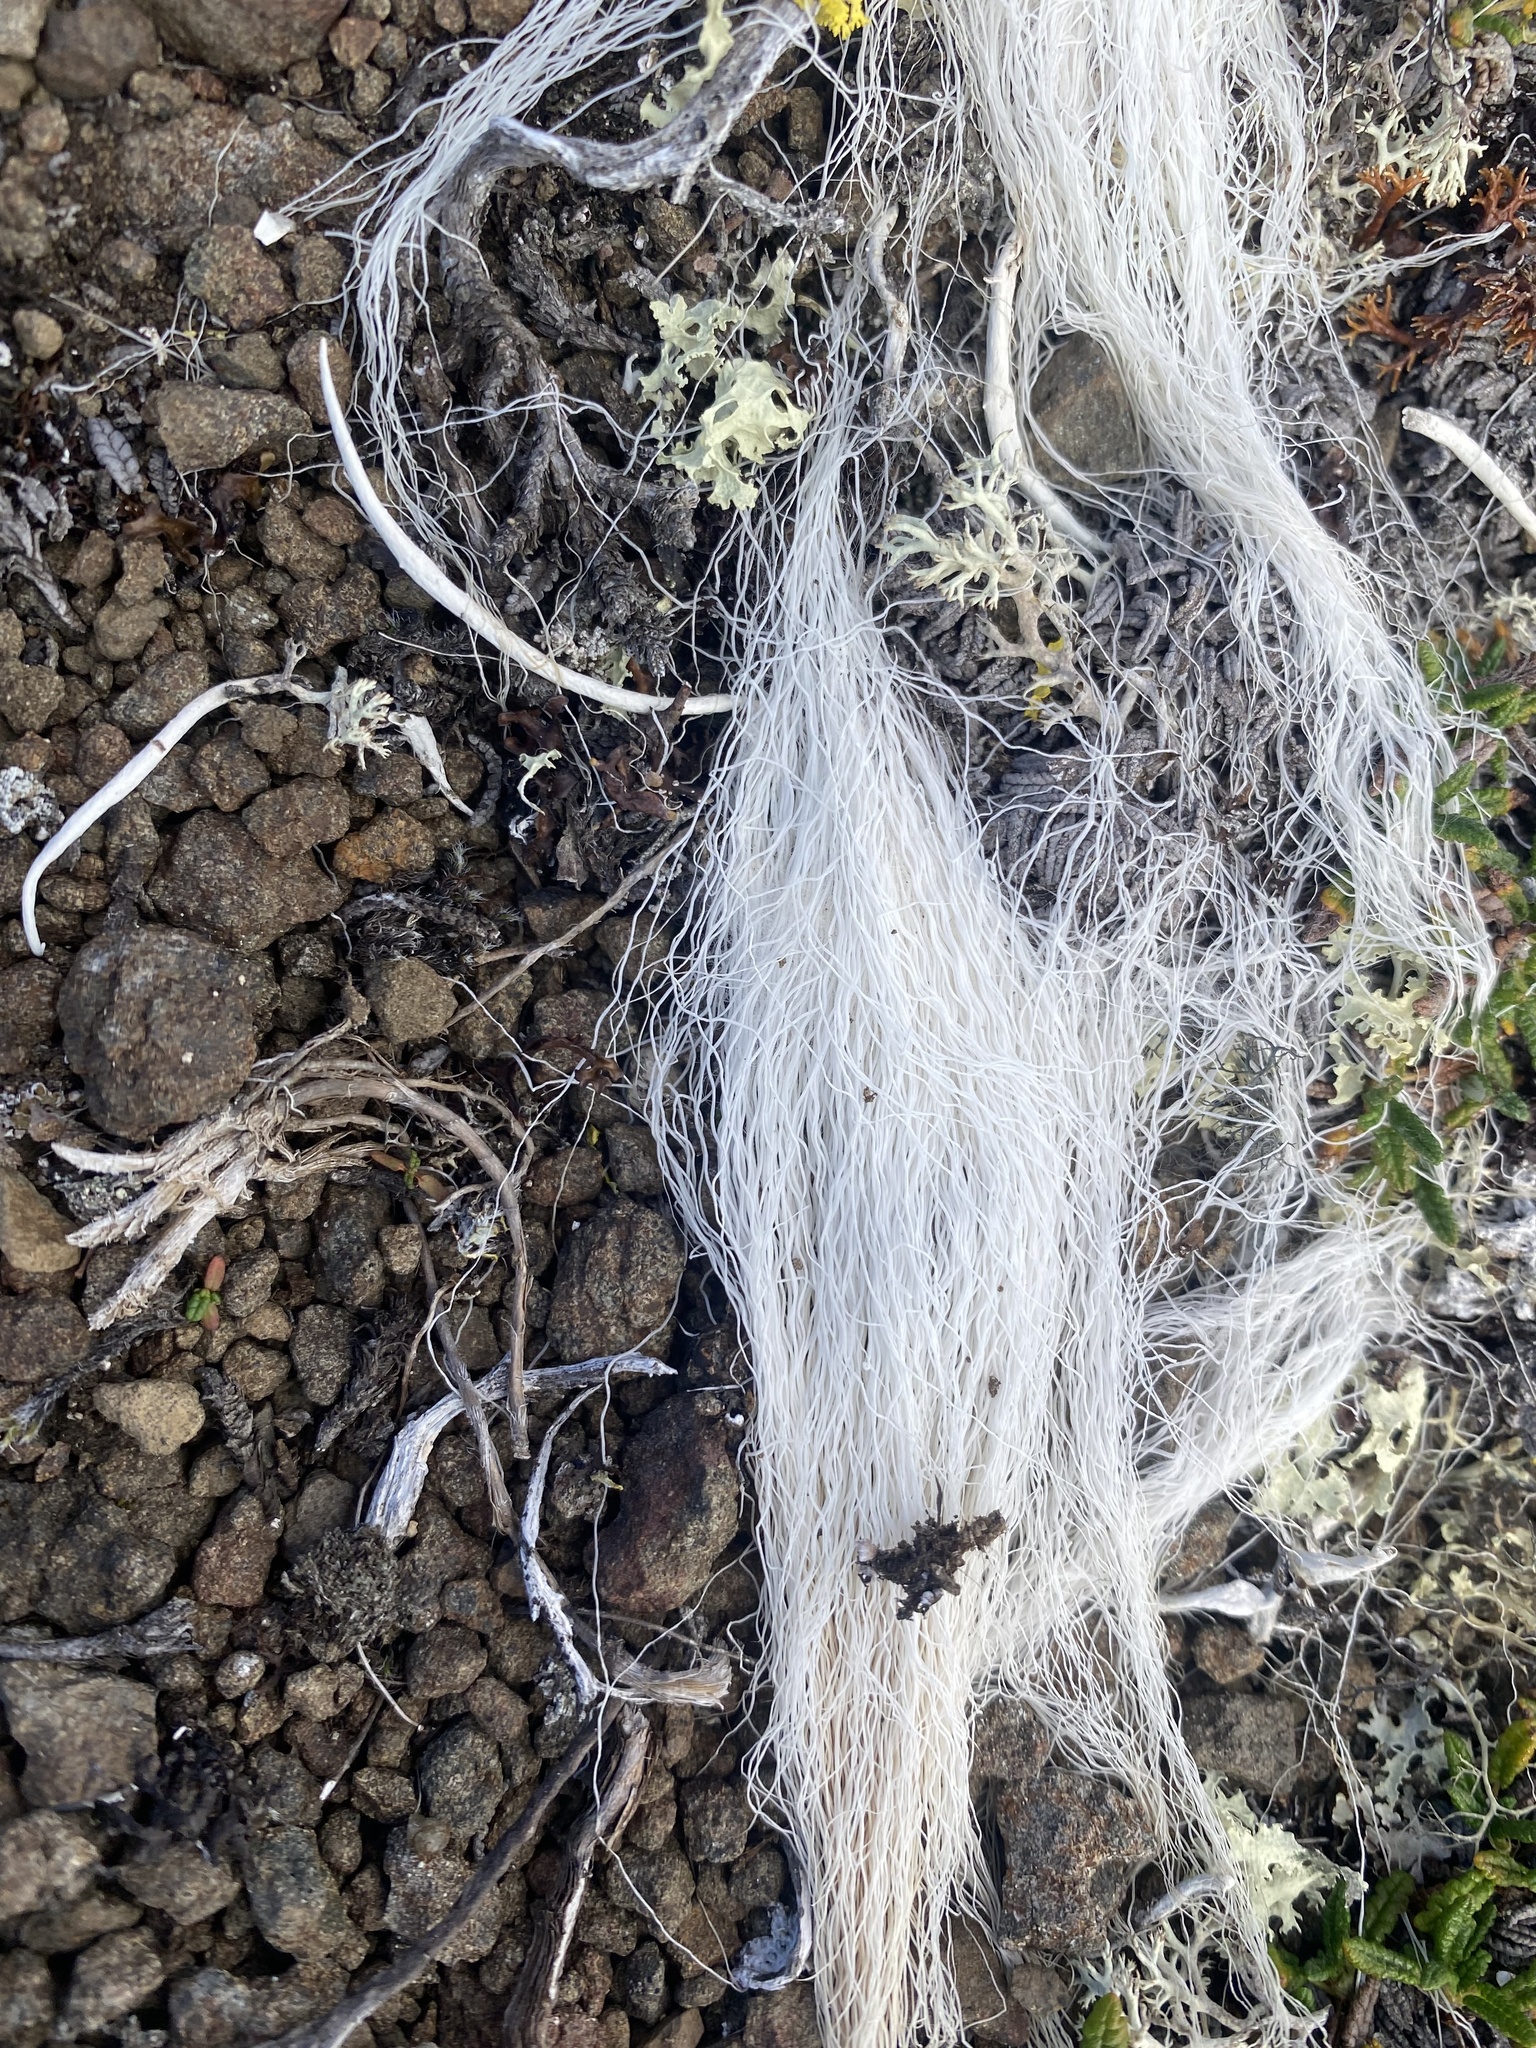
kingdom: Animalia
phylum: Chordata
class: Mammalia
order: Carnivora
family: Canidae
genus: Vulpes
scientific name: Vulpes lagopus
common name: Arctic fox
